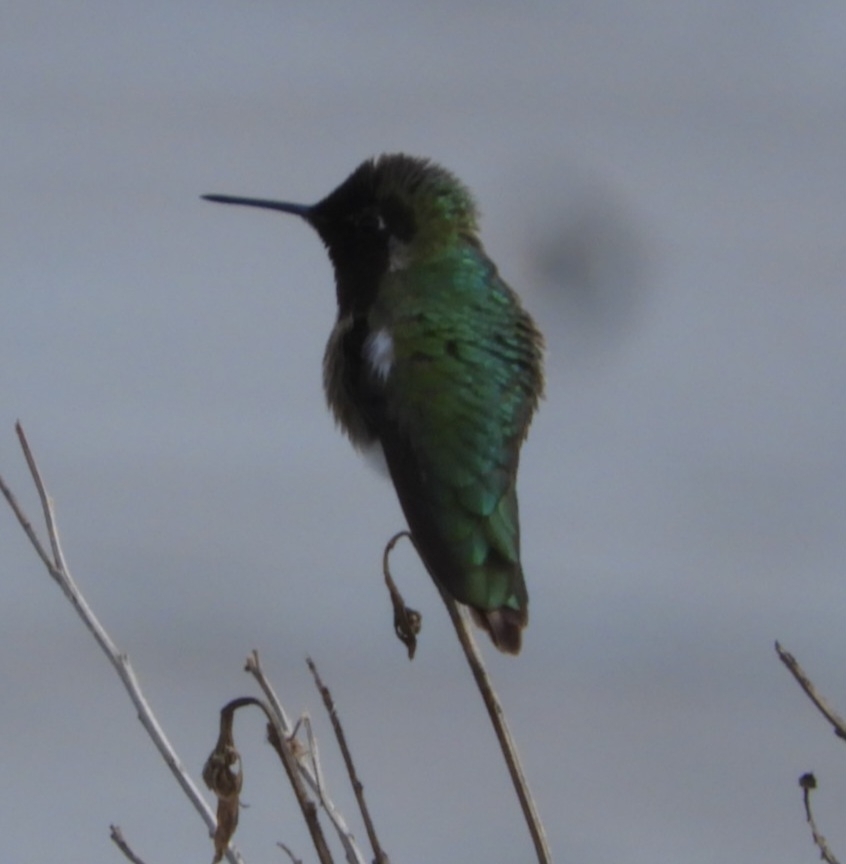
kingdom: Animalia
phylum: Chordata
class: Aves
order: Apodiformes
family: Trochilidae
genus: Calypte
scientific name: Calypte anna
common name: Anna's hummingbird
